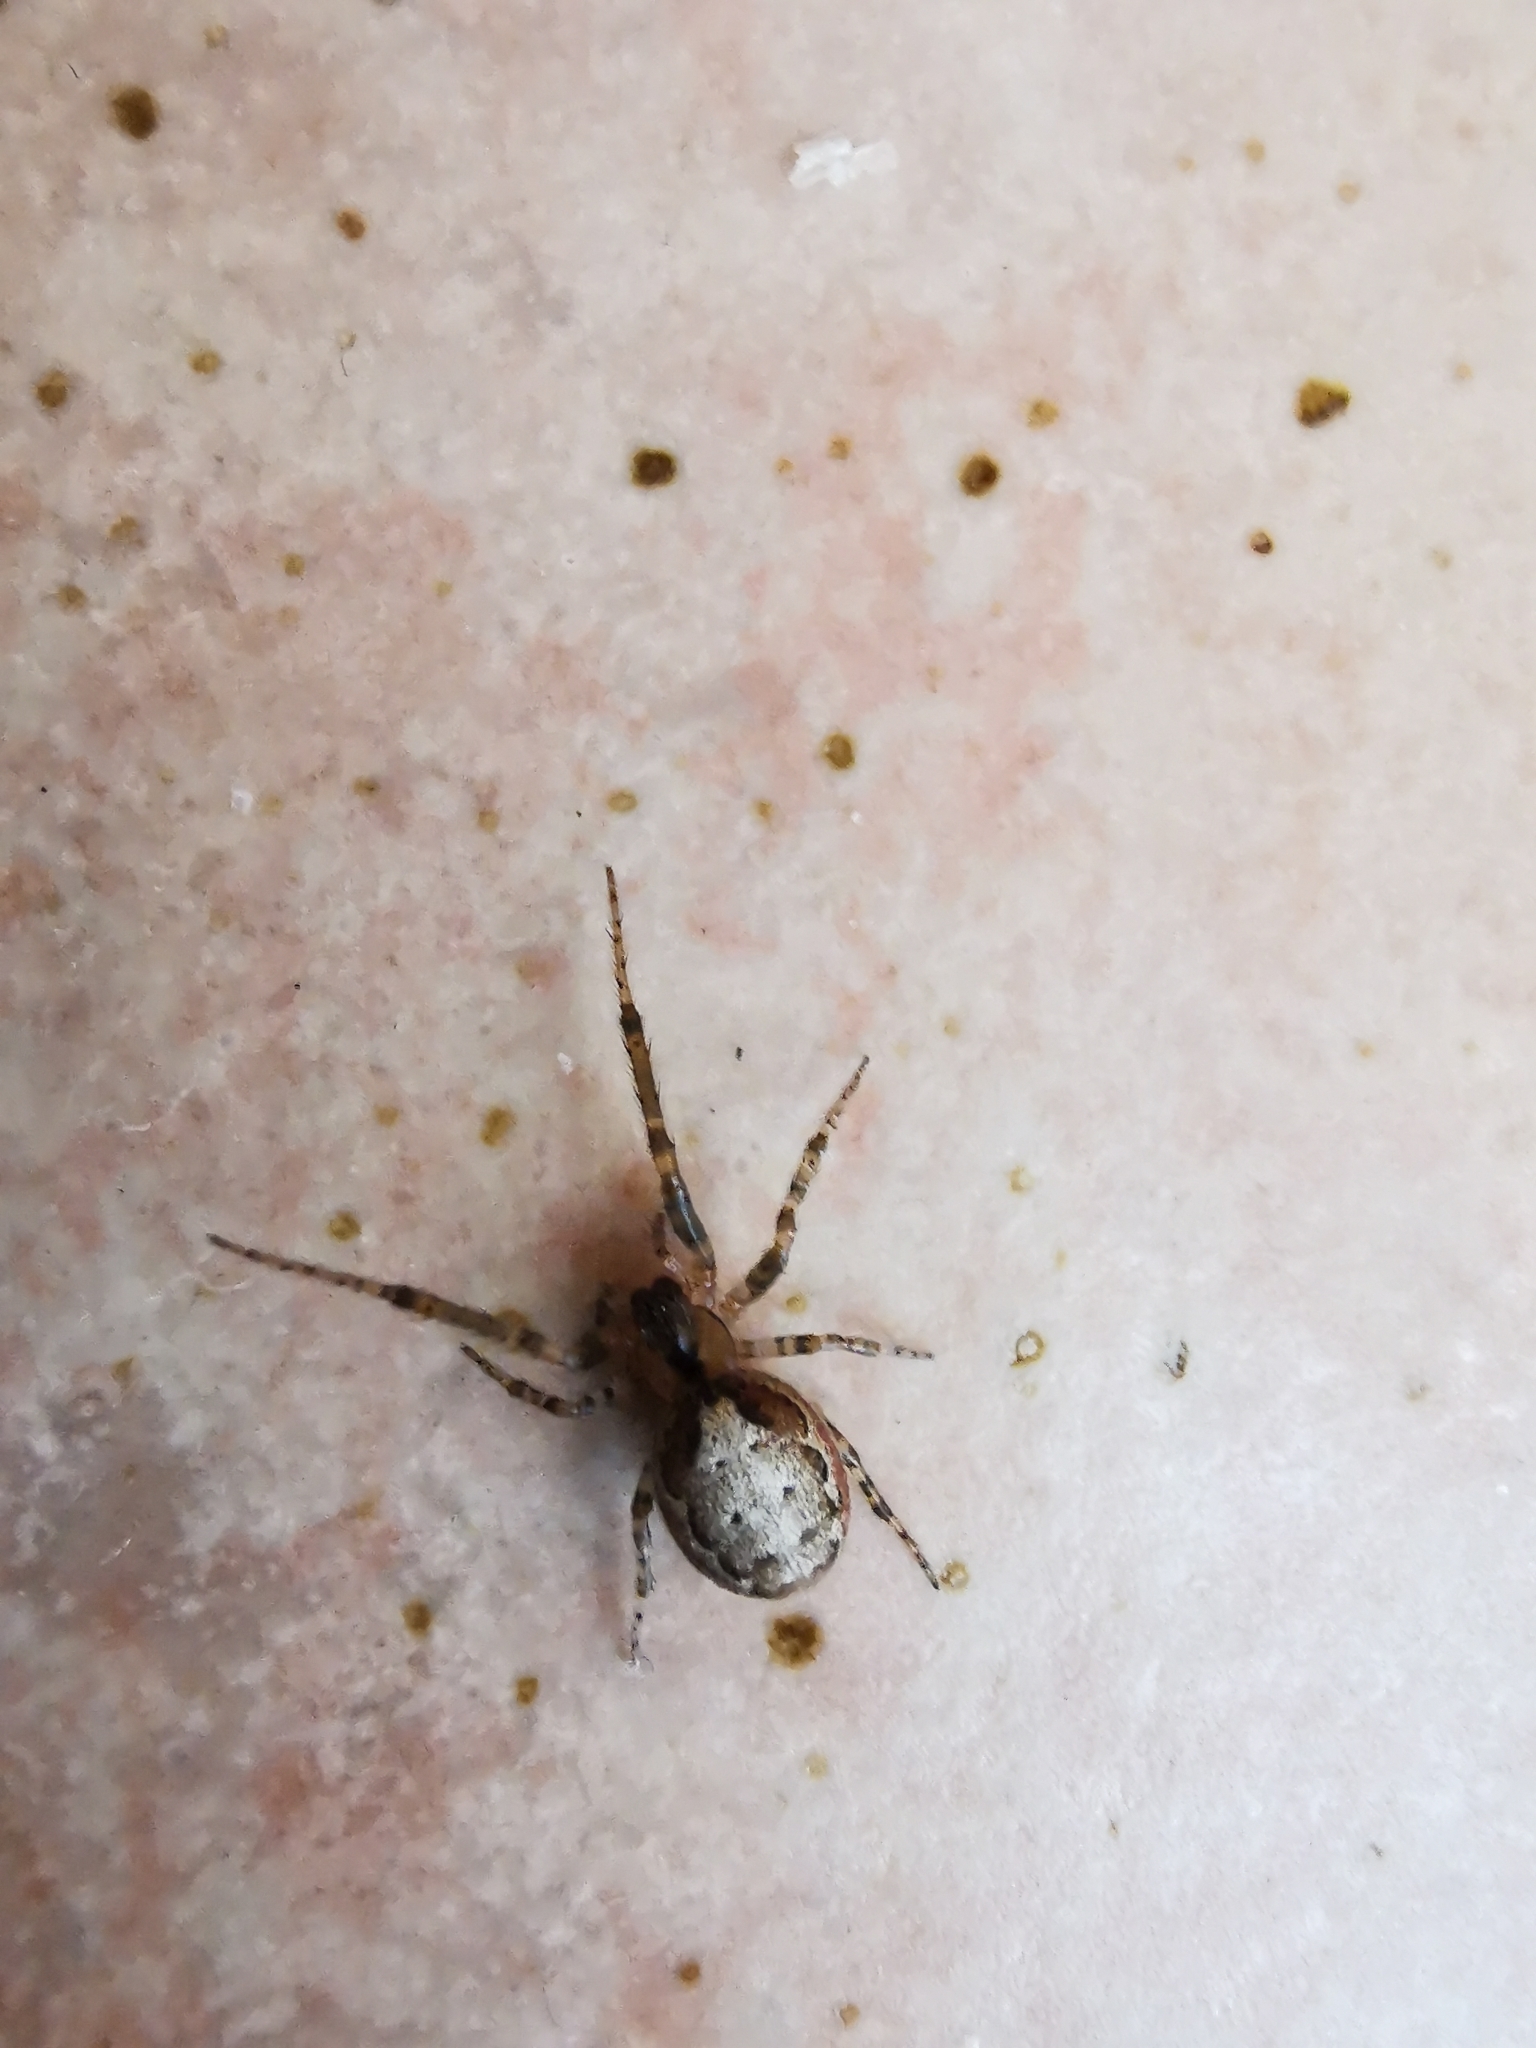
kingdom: Animalia
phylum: Arthropoda
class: Arachnida
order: Araneae
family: Araneidae
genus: Zygiella
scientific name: Zygiella x-notata
